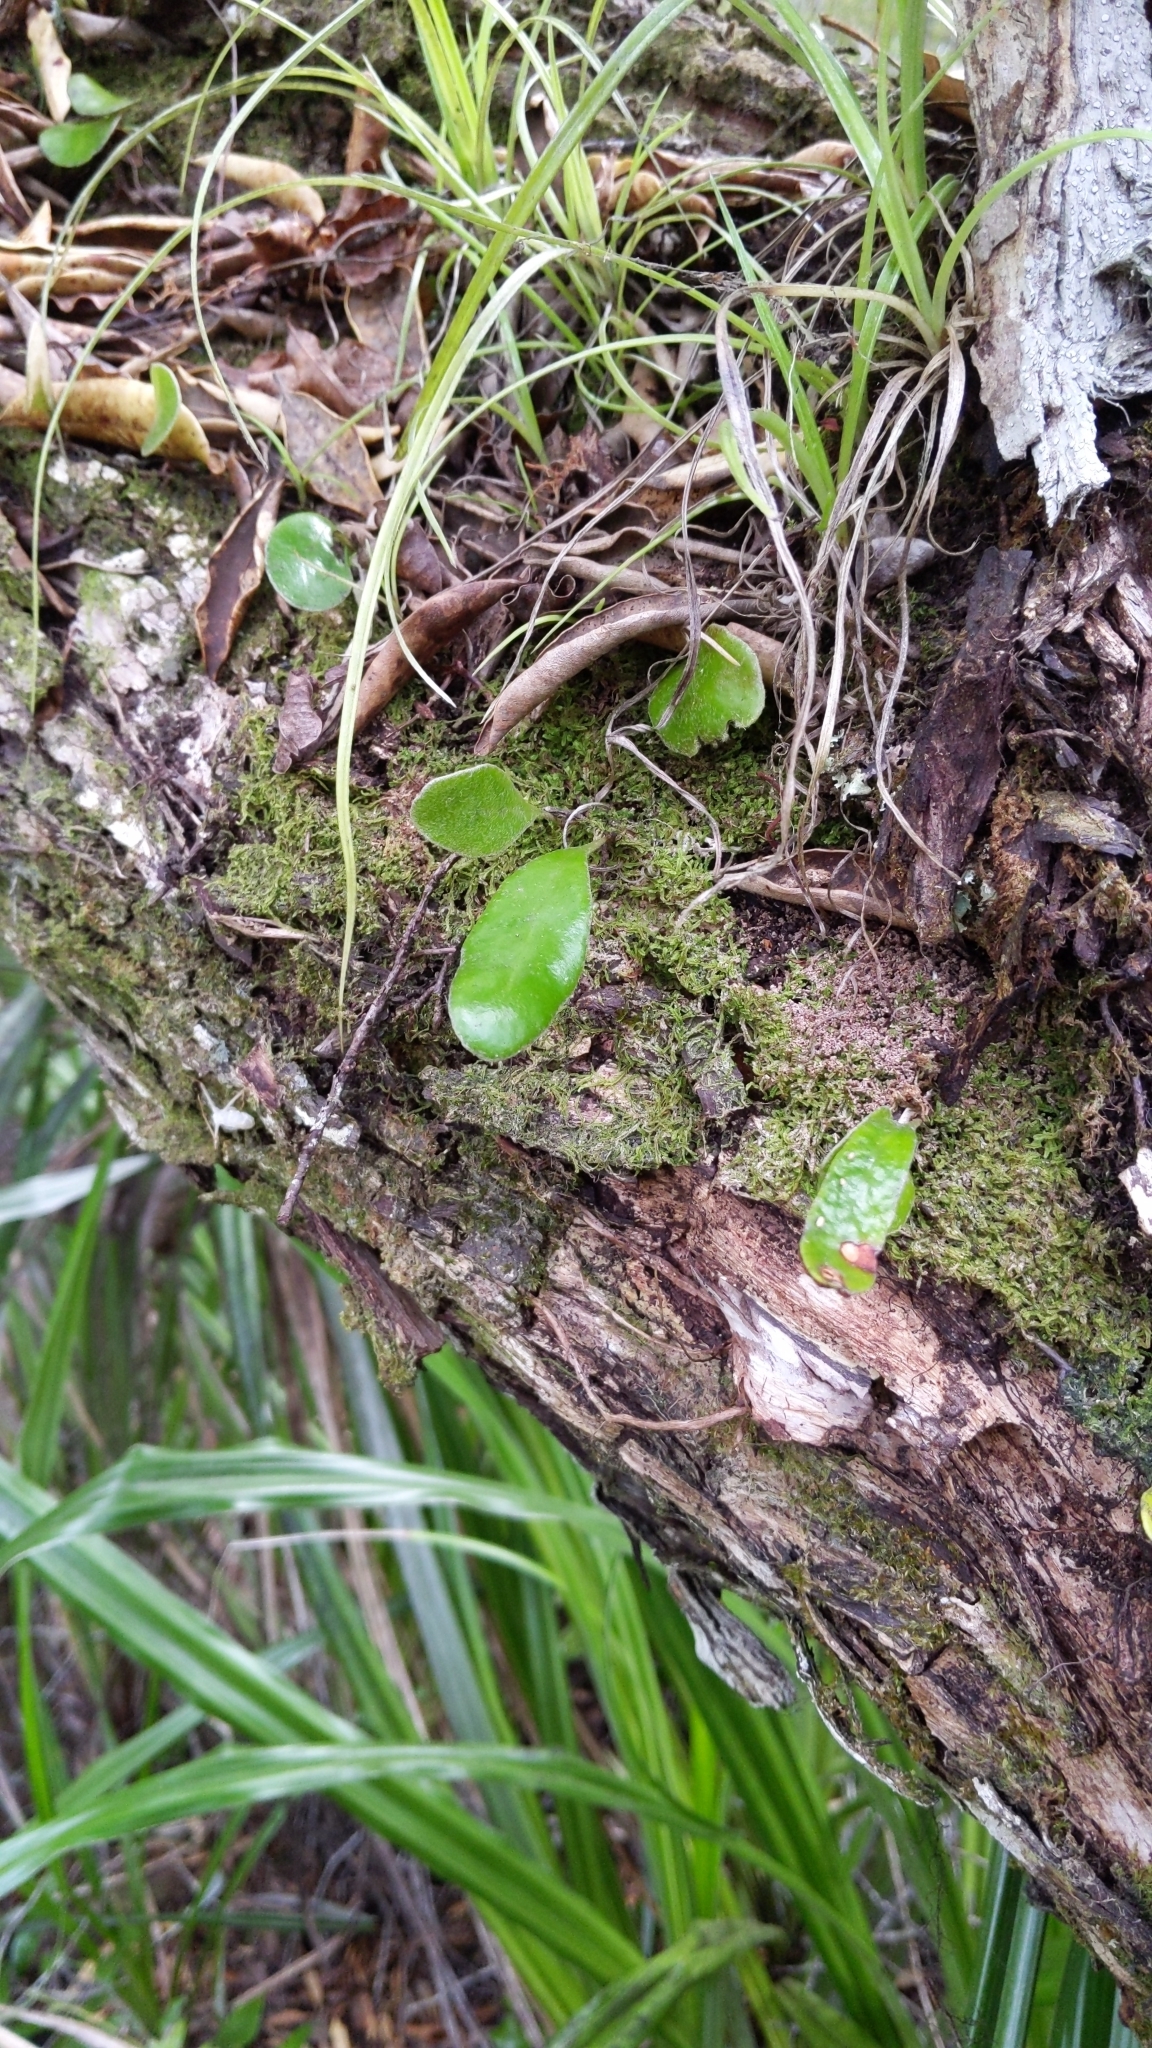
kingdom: Plantae
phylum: Tracheophyta
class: Polypodiopsida
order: Polypodiales
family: Polypodiaceae
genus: Pyrrosia
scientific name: Pyrrosia eleagnifolia
